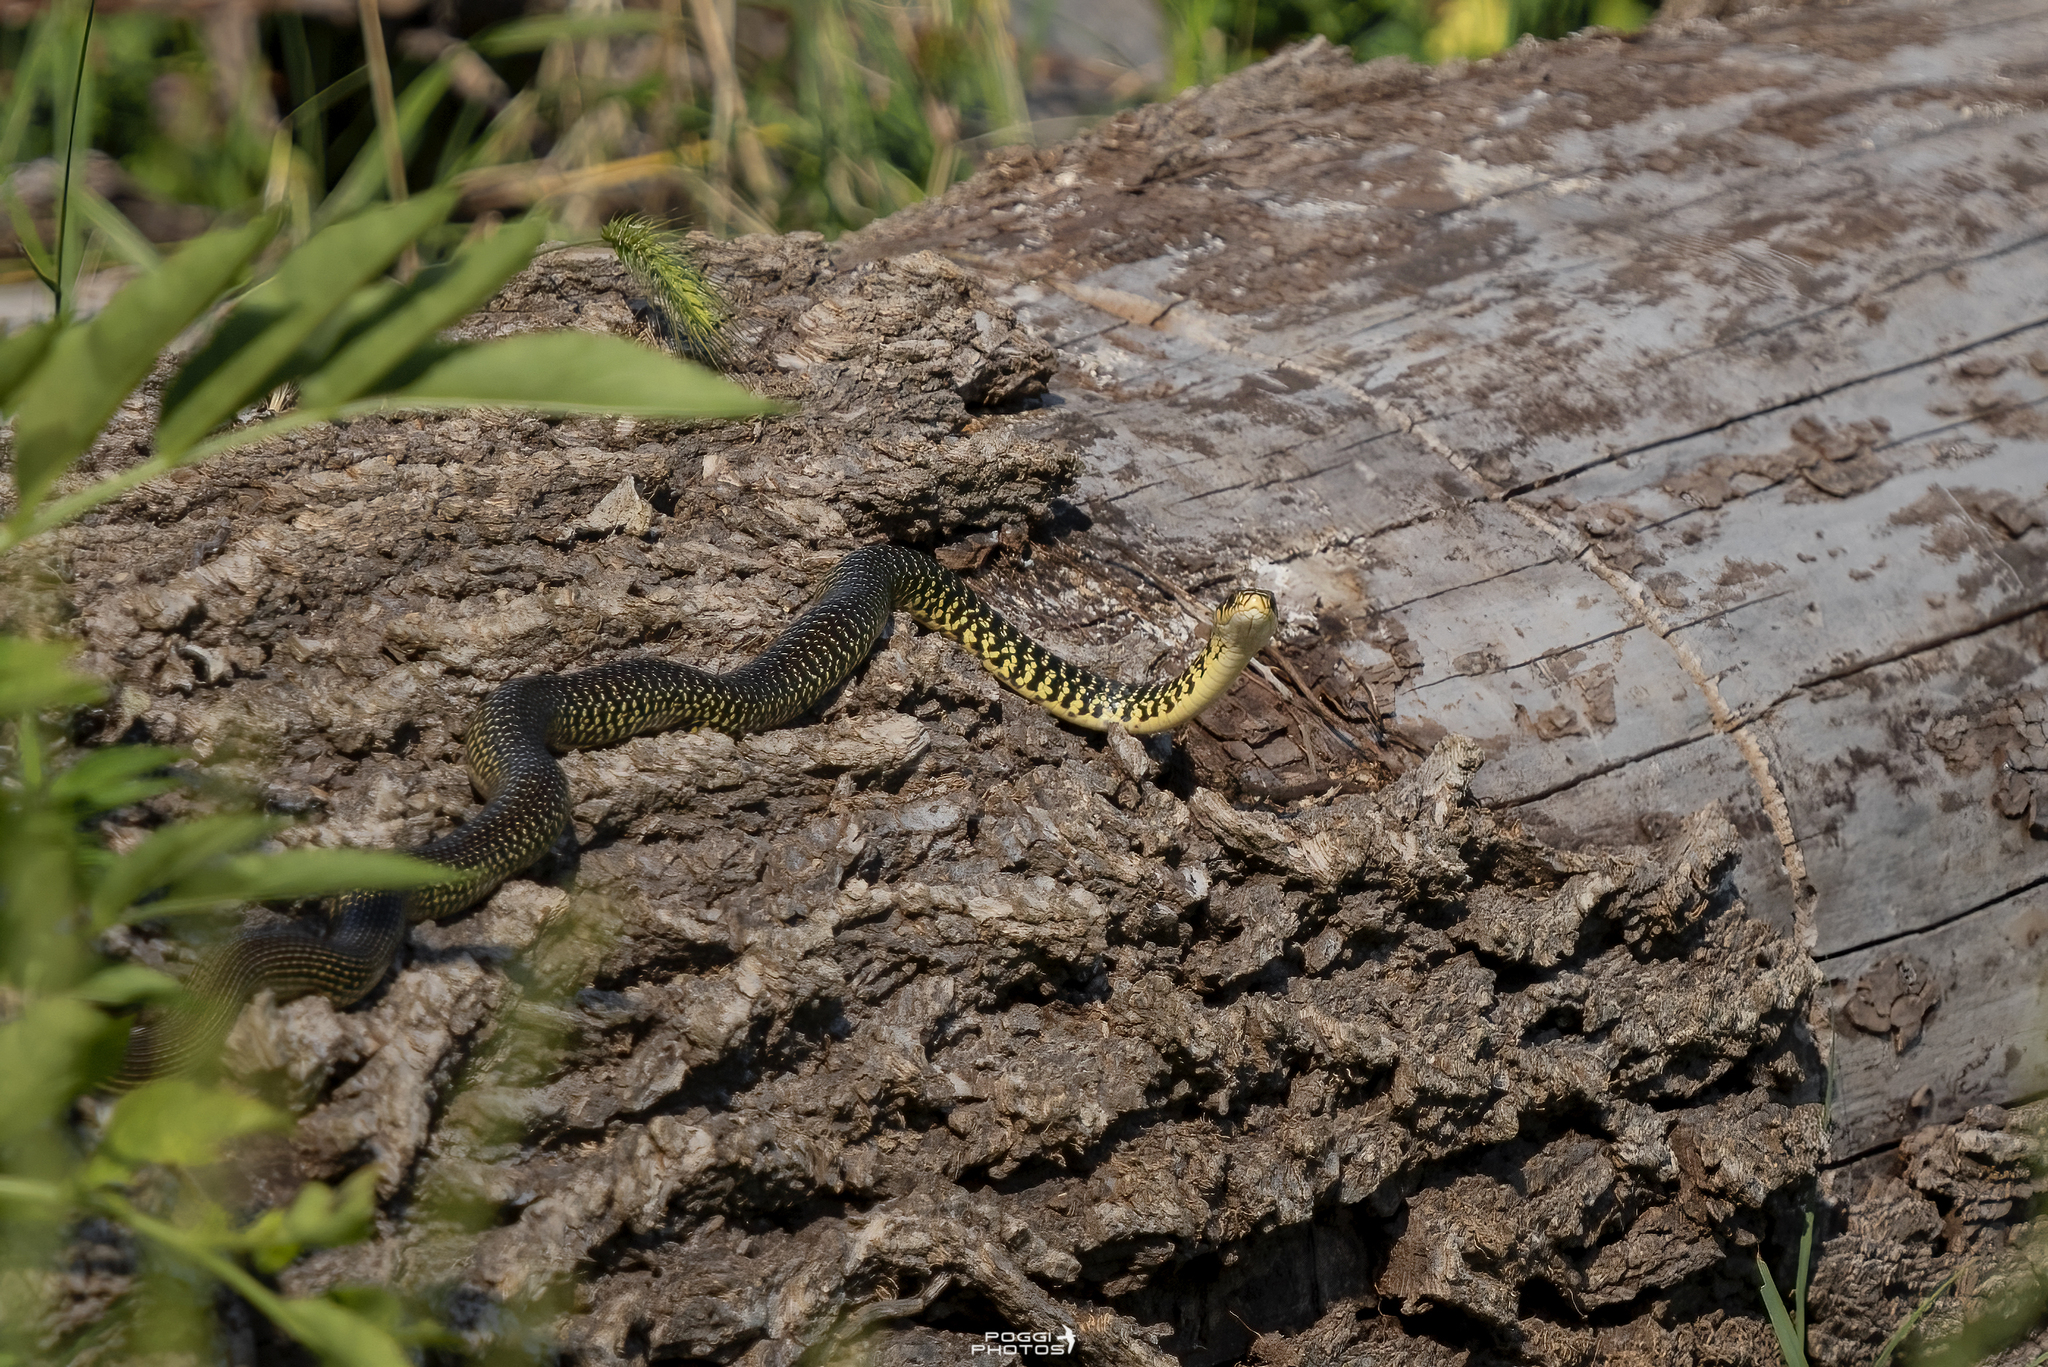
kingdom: Animalia
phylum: Chordata
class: Squamata
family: Colubridae
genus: Hierophis
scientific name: Hierophis viridiflavus
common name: Green whip snake
